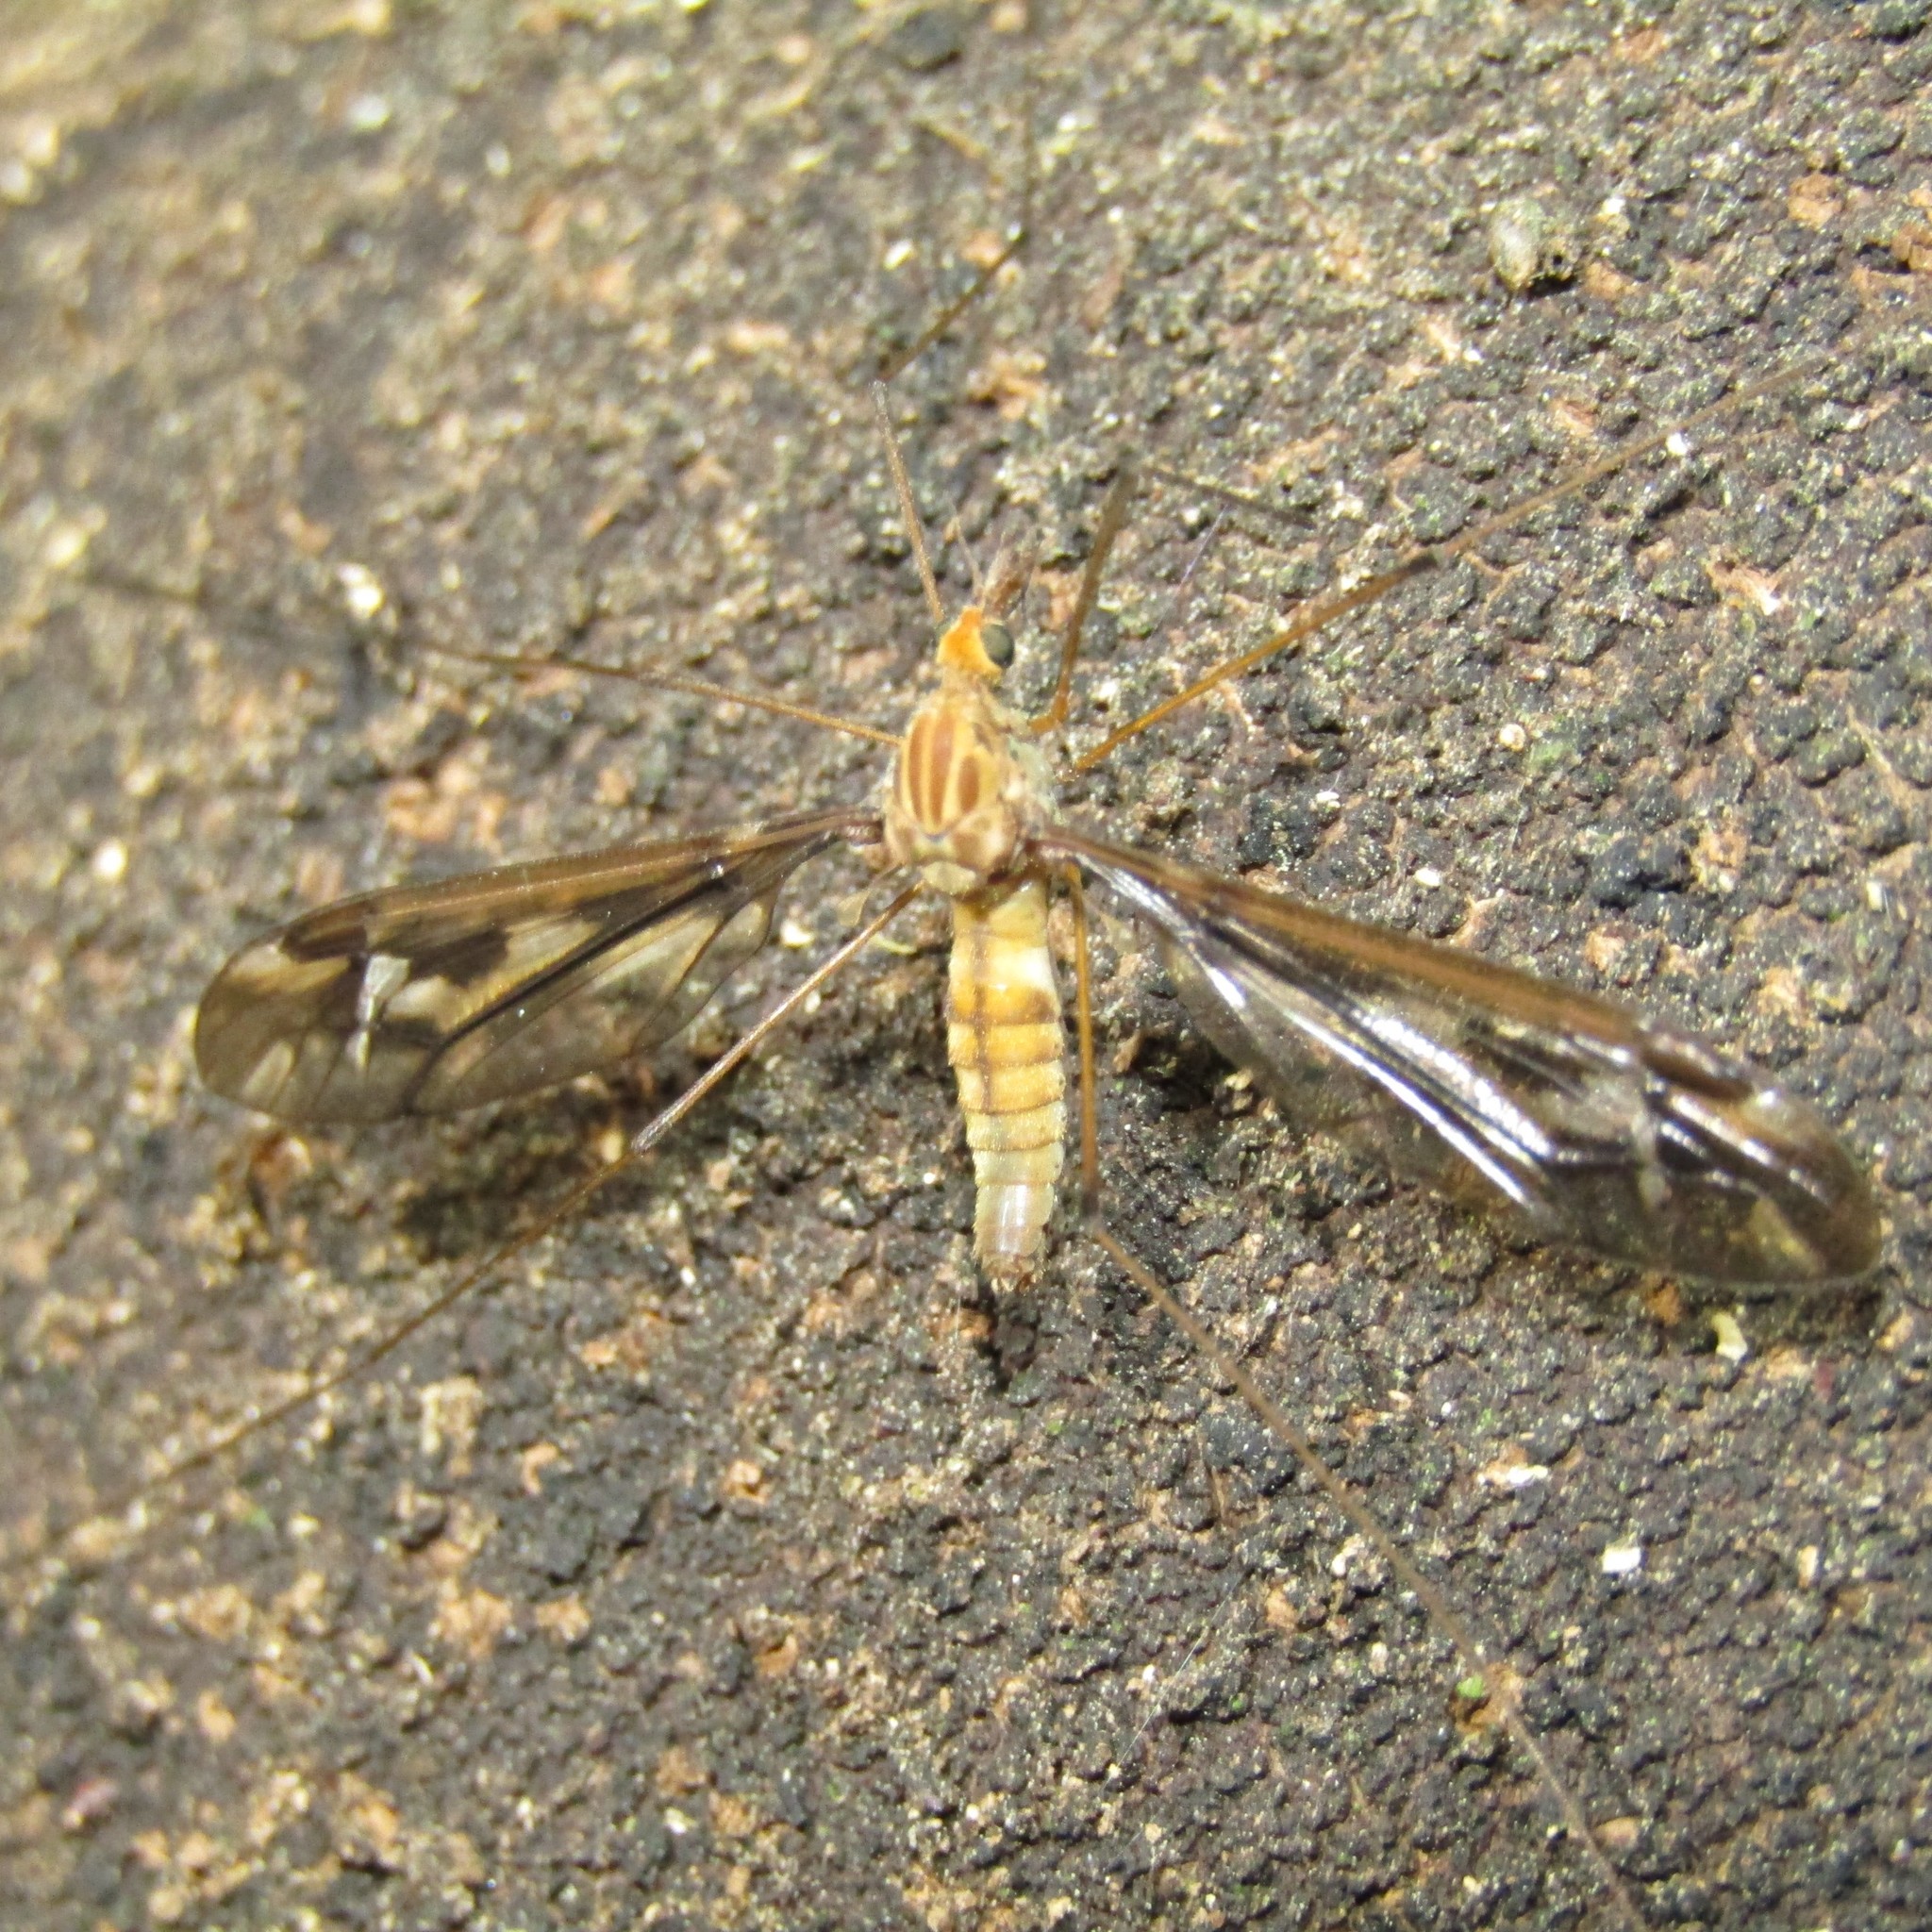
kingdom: Animalia
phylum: Arthropoda
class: Insecta
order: Diptera
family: Tipulidae
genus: Leptotarsus
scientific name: Leptotarsus huttoni
